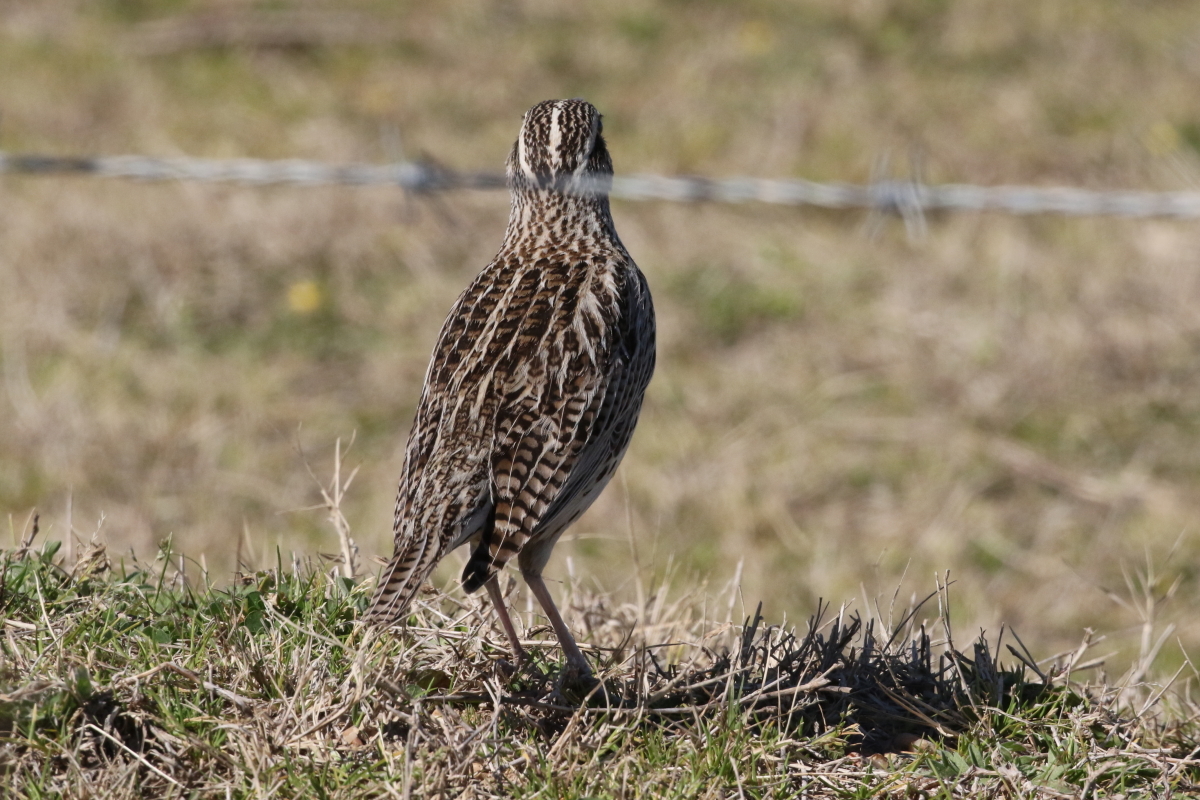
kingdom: Animalia
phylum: Chordata
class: Aves
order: Passeriformes
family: Icteridae
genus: Sturnella
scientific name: Sturnella neglecta
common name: Western meadowlark
